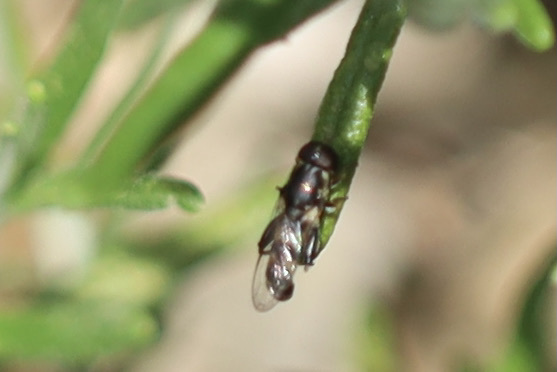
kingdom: Animalia
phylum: Arthropoda
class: Insecta
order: Diptera
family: Syrphidae
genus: Syritta
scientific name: Syritta pipiens
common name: Hover fly
